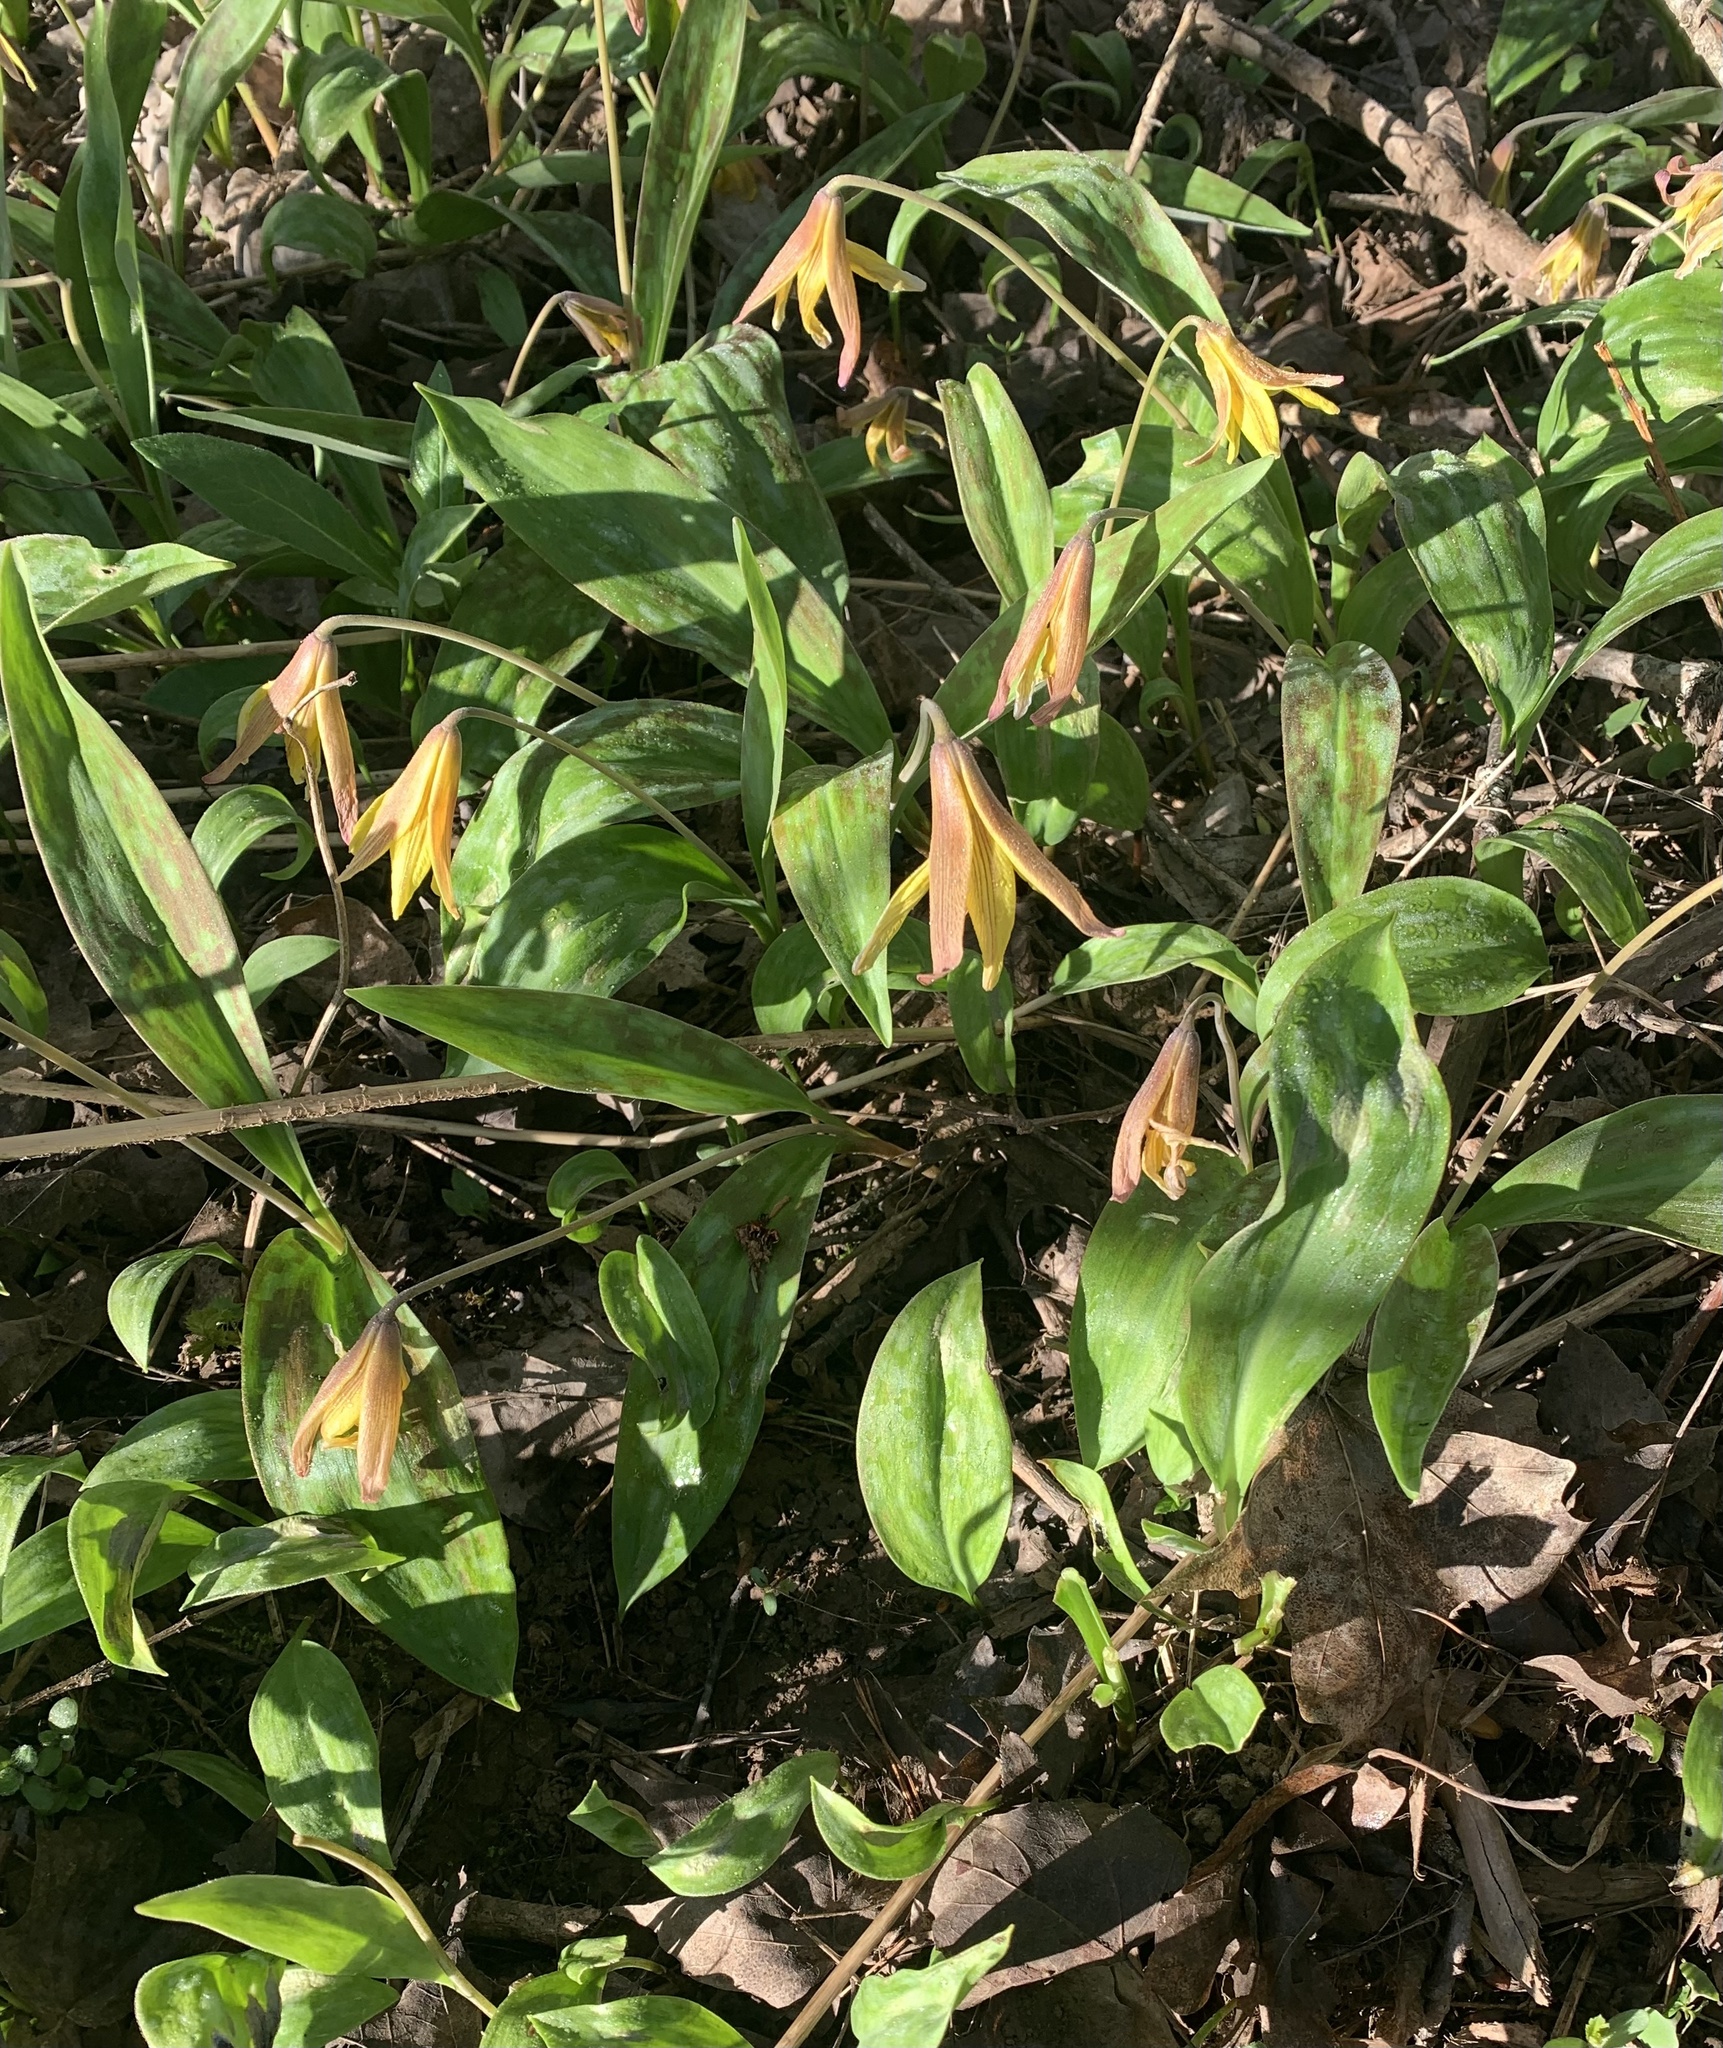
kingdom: Plantae
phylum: Tracheophyta
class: Liliopsida
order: Liliales
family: Liliaceae
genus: Erythronium
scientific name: Erythronium americanum
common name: Yellow adder's-tongue
